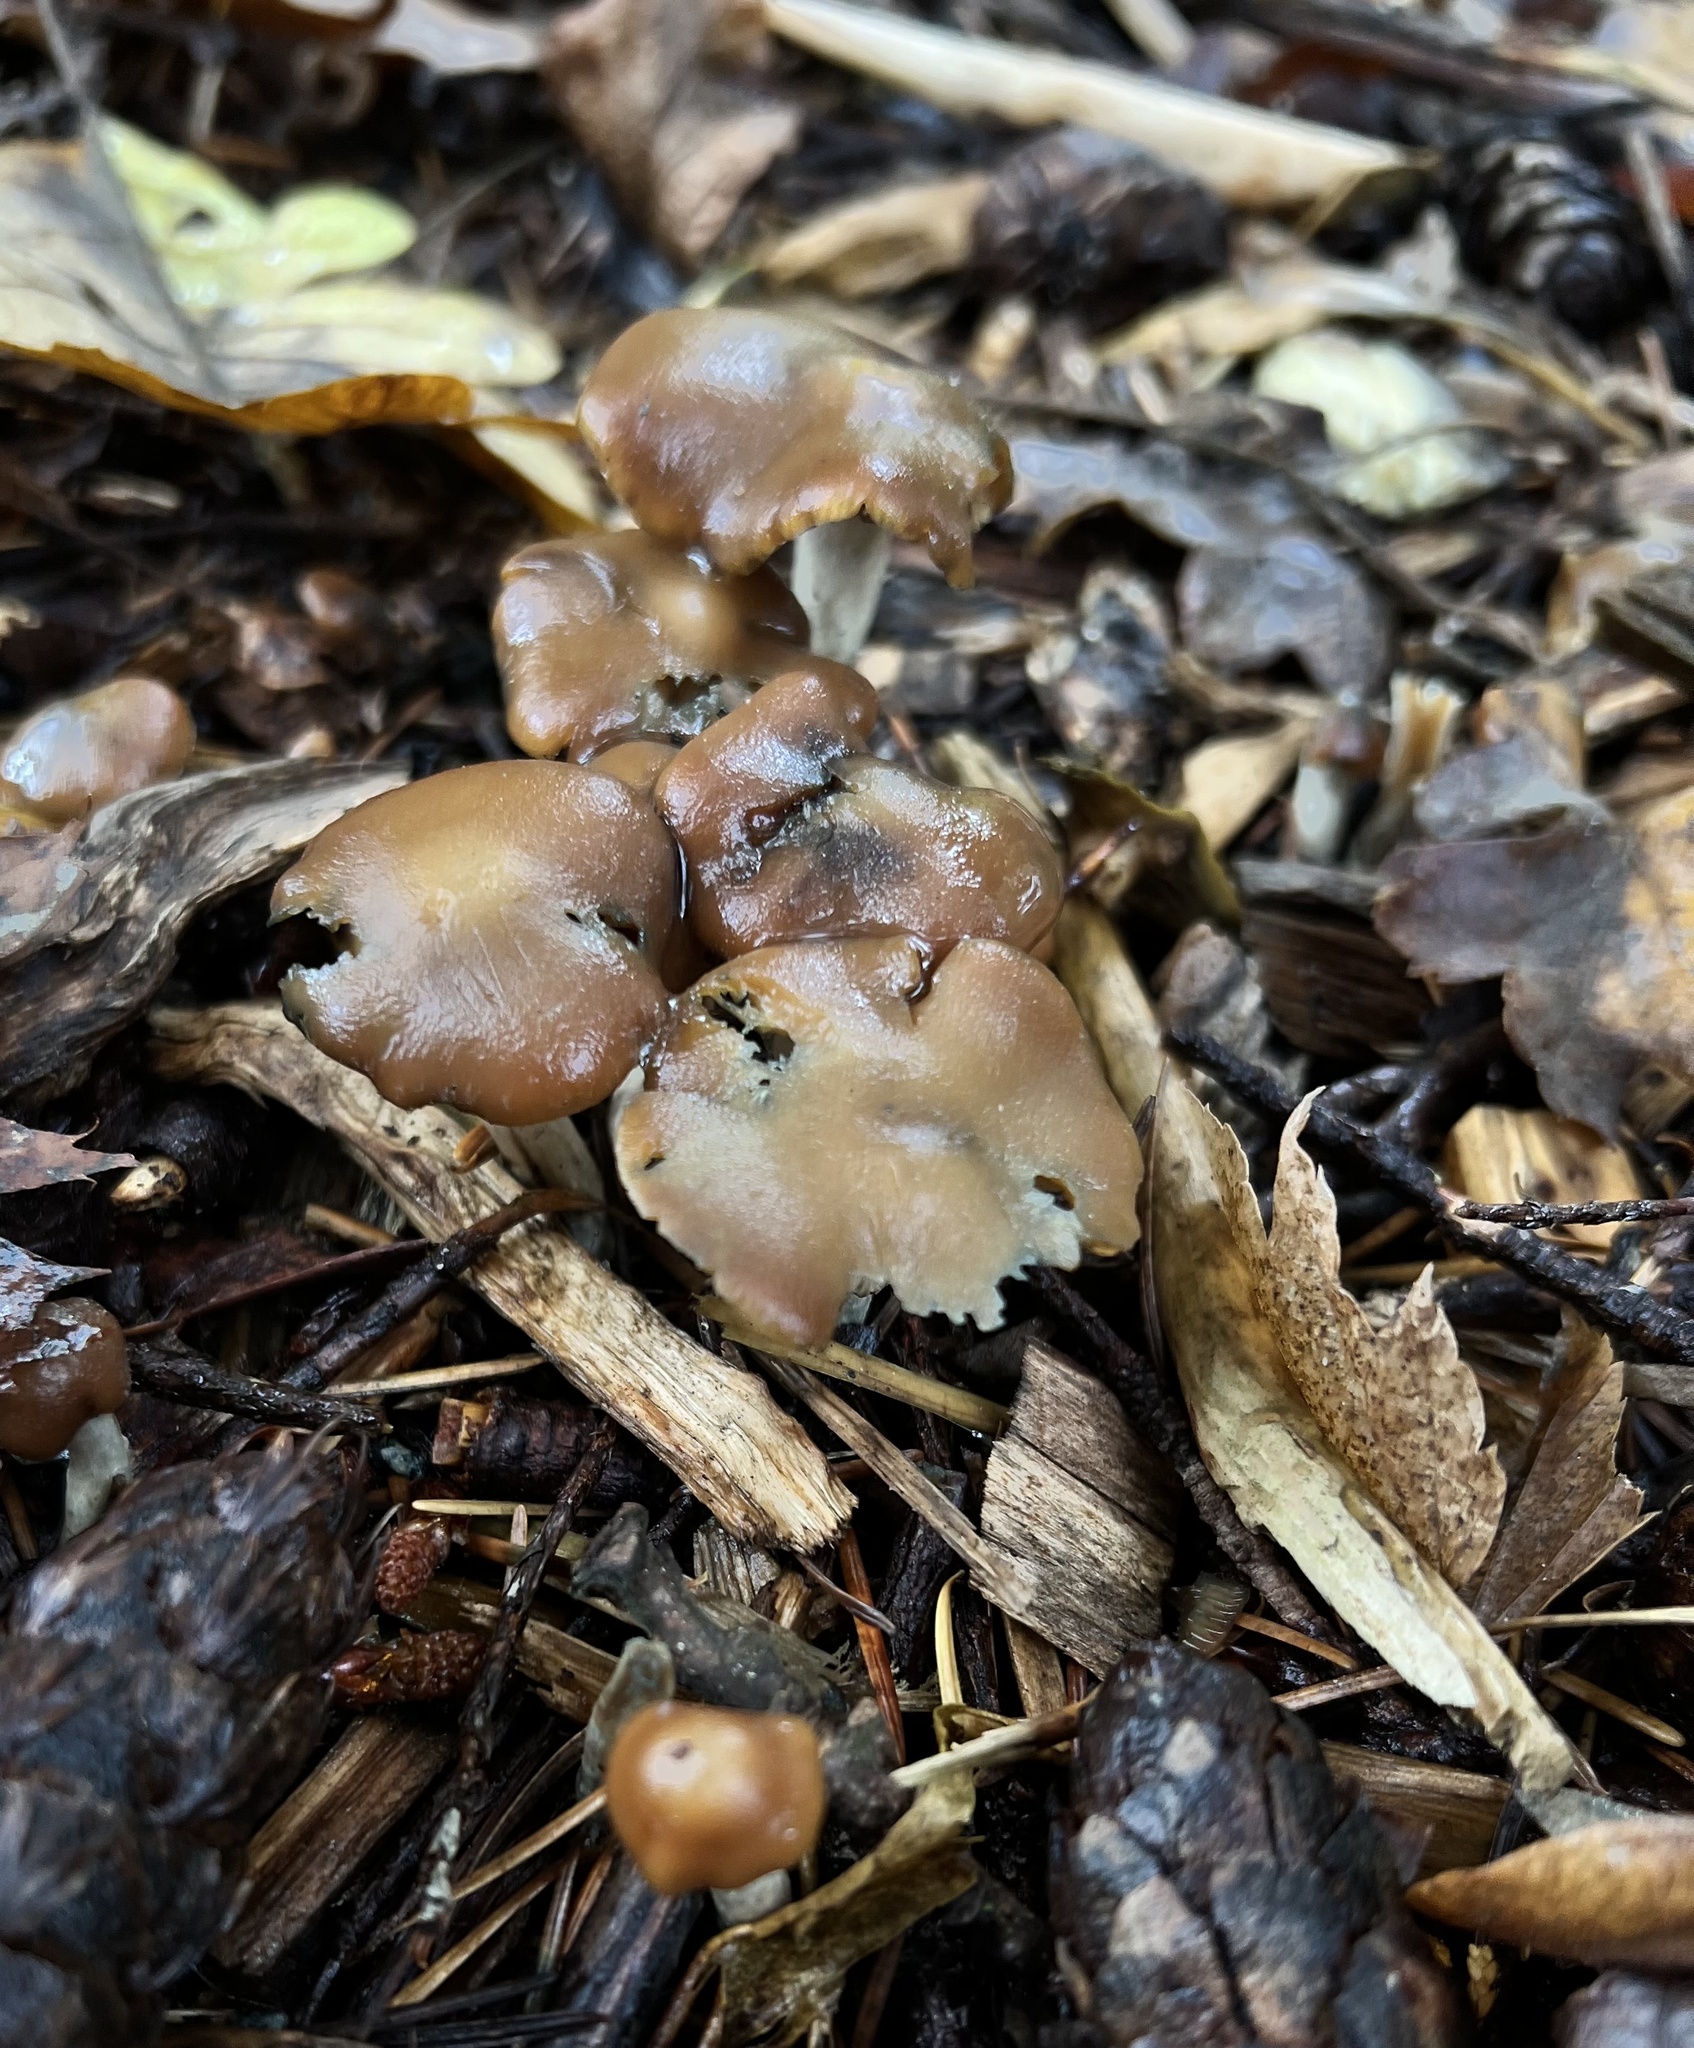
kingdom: Fungi
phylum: Basidiomycota
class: Agaricomycetes
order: Agaricales
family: Hymenogastraceae
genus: Psilocybe
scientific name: Psilocybe cyanescens
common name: Blueleg brownie
